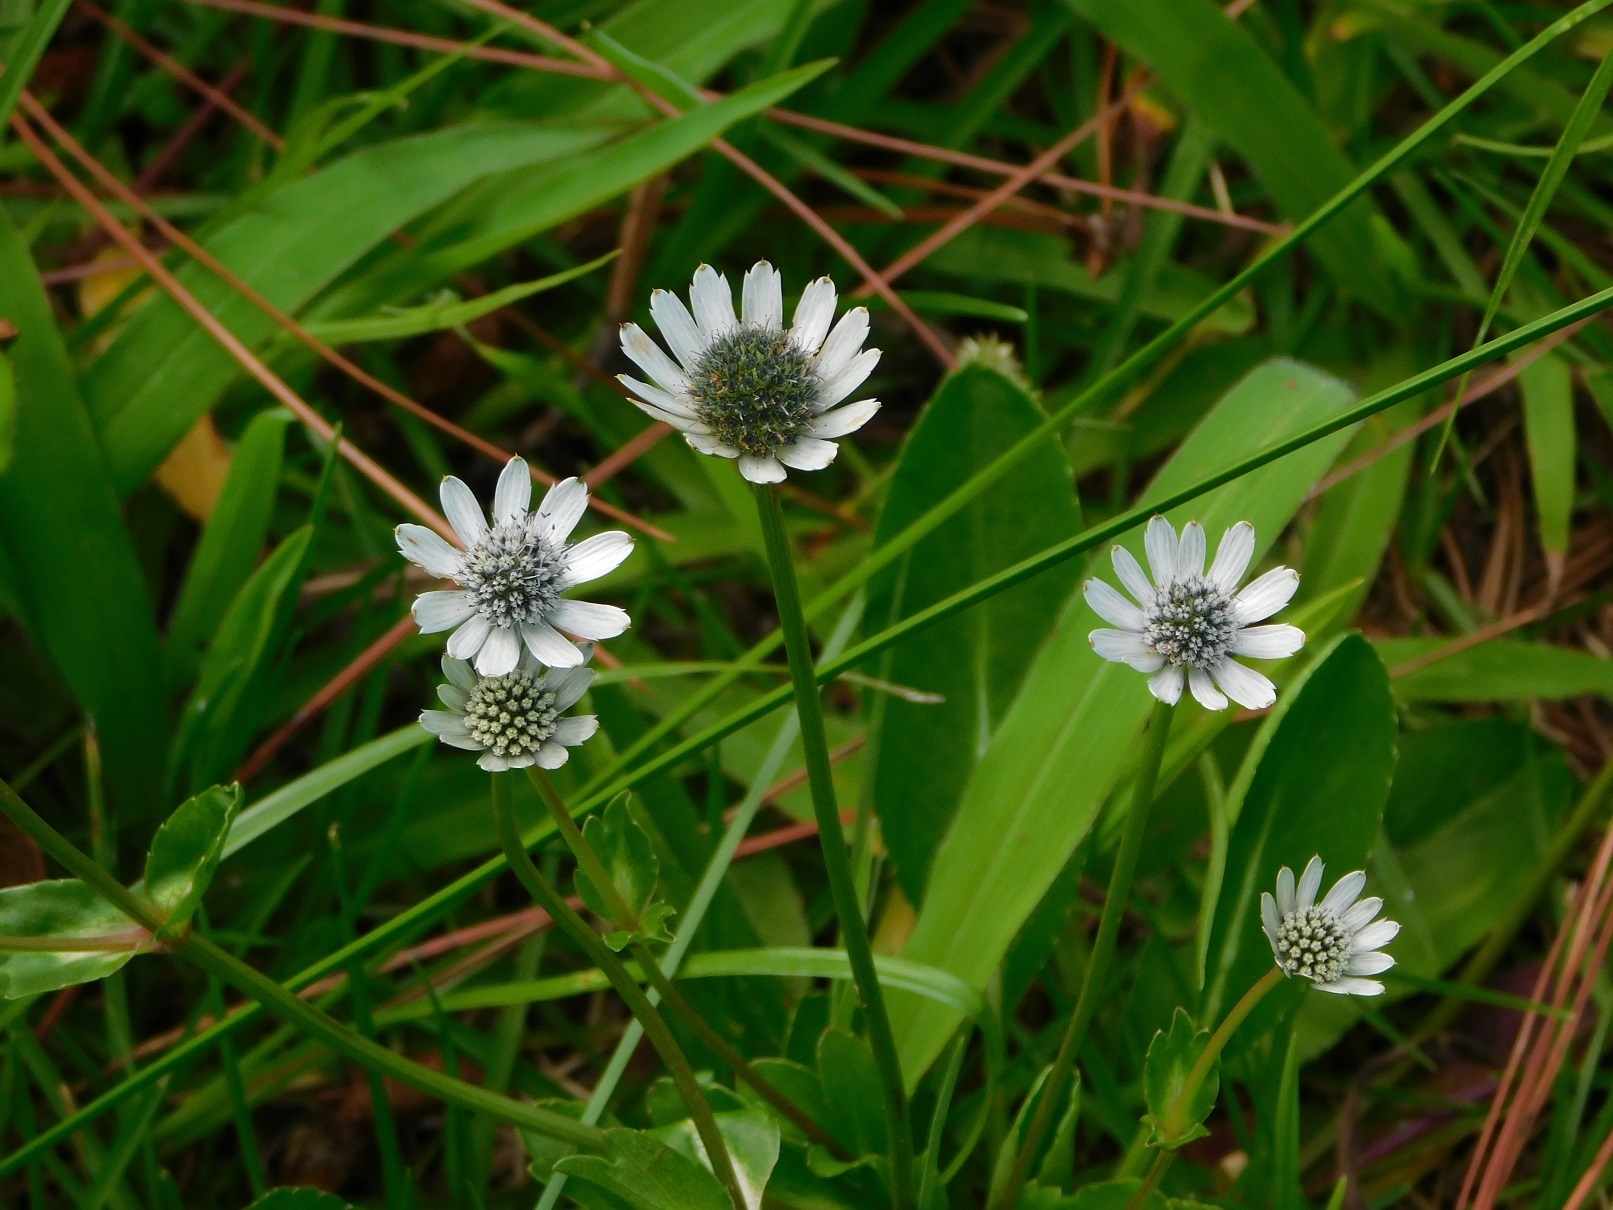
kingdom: Plantae
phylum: Tracheophyta
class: Magnoliopsida
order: Apiales
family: Apiaceae
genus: Eryngium
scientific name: Eryngium scaposum
